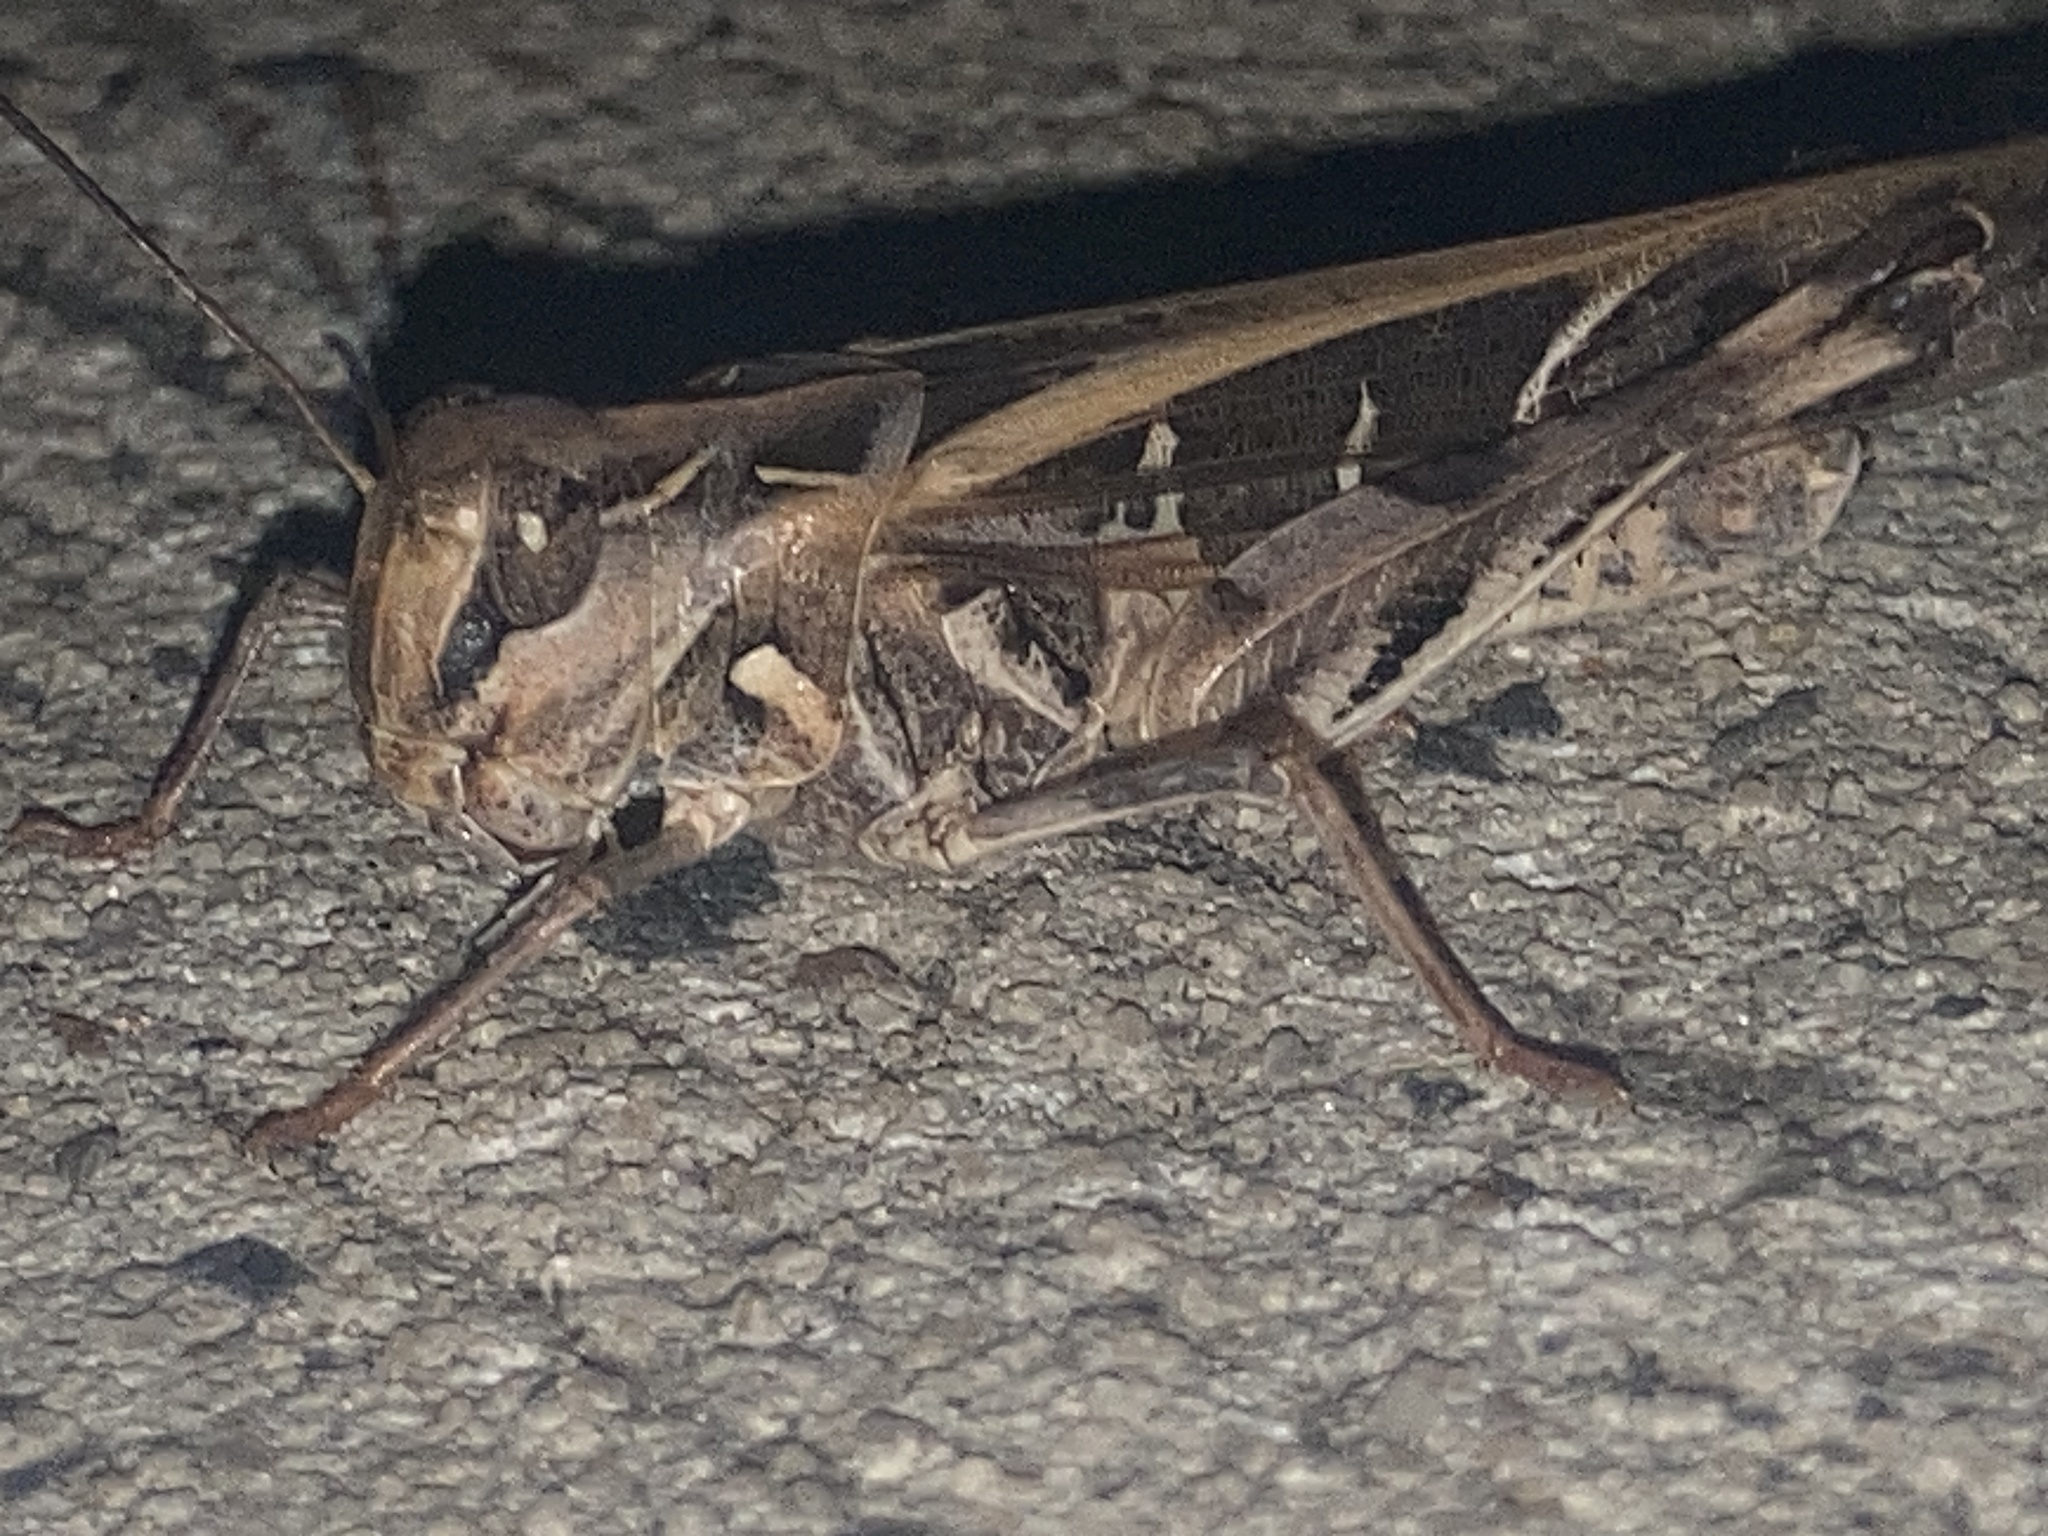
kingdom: Animalia
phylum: Arthropoda
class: Insecta
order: Orthoptera
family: Acrididae
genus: Oedaleus
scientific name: Oedaleus australis
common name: Eastern oedaleus
